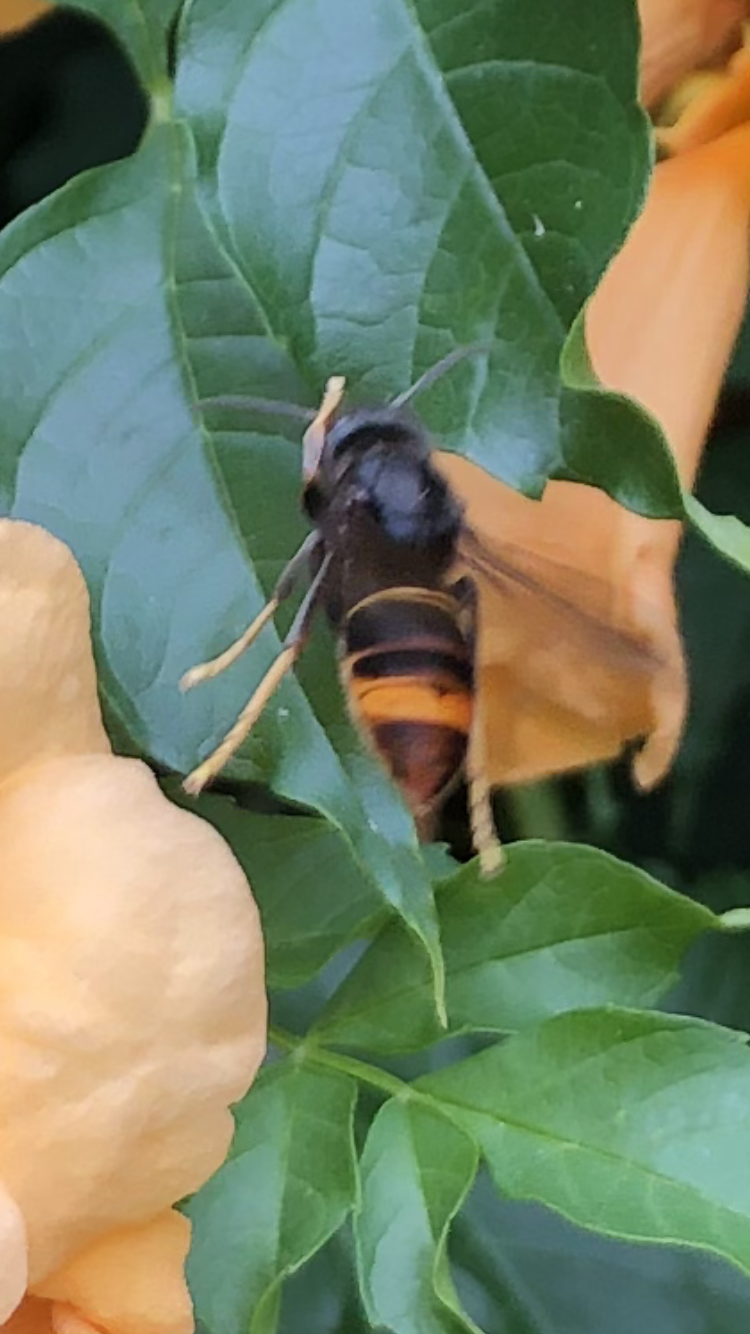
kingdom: Animalia
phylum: Arthropoda
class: Insecta
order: Hymenoptera
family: Vespidae
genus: Vespa
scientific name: Vespa velutina
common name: Asian hornet
